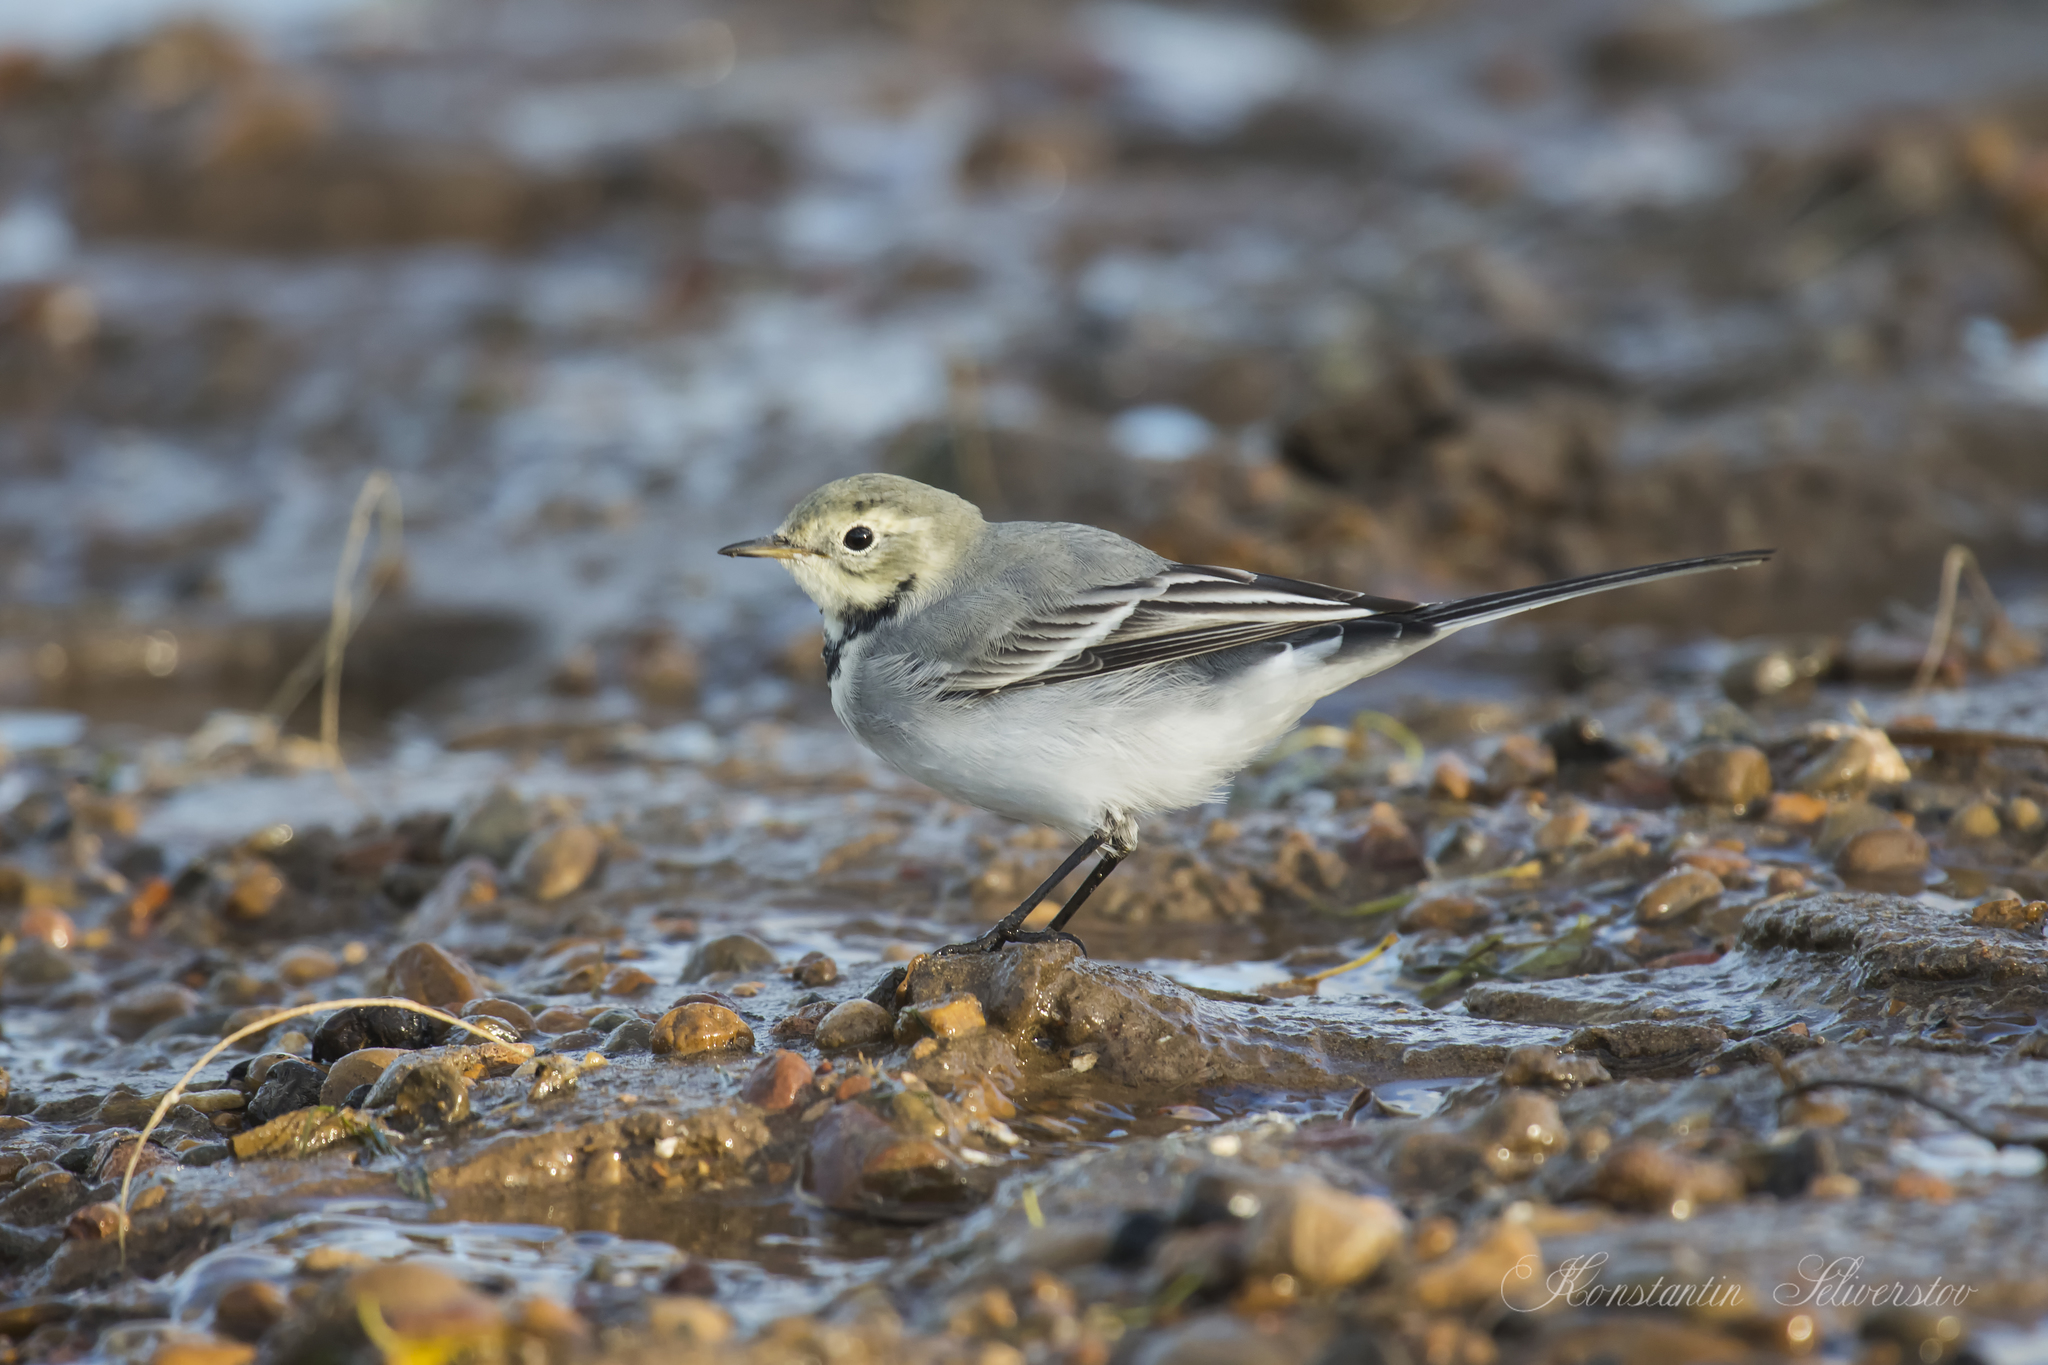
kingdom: Animalia
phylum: Chordata
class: Aves
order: Passeriformes
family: Motacillidae
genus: Motacilla
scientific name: Motacilla alba
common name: White wagtail
